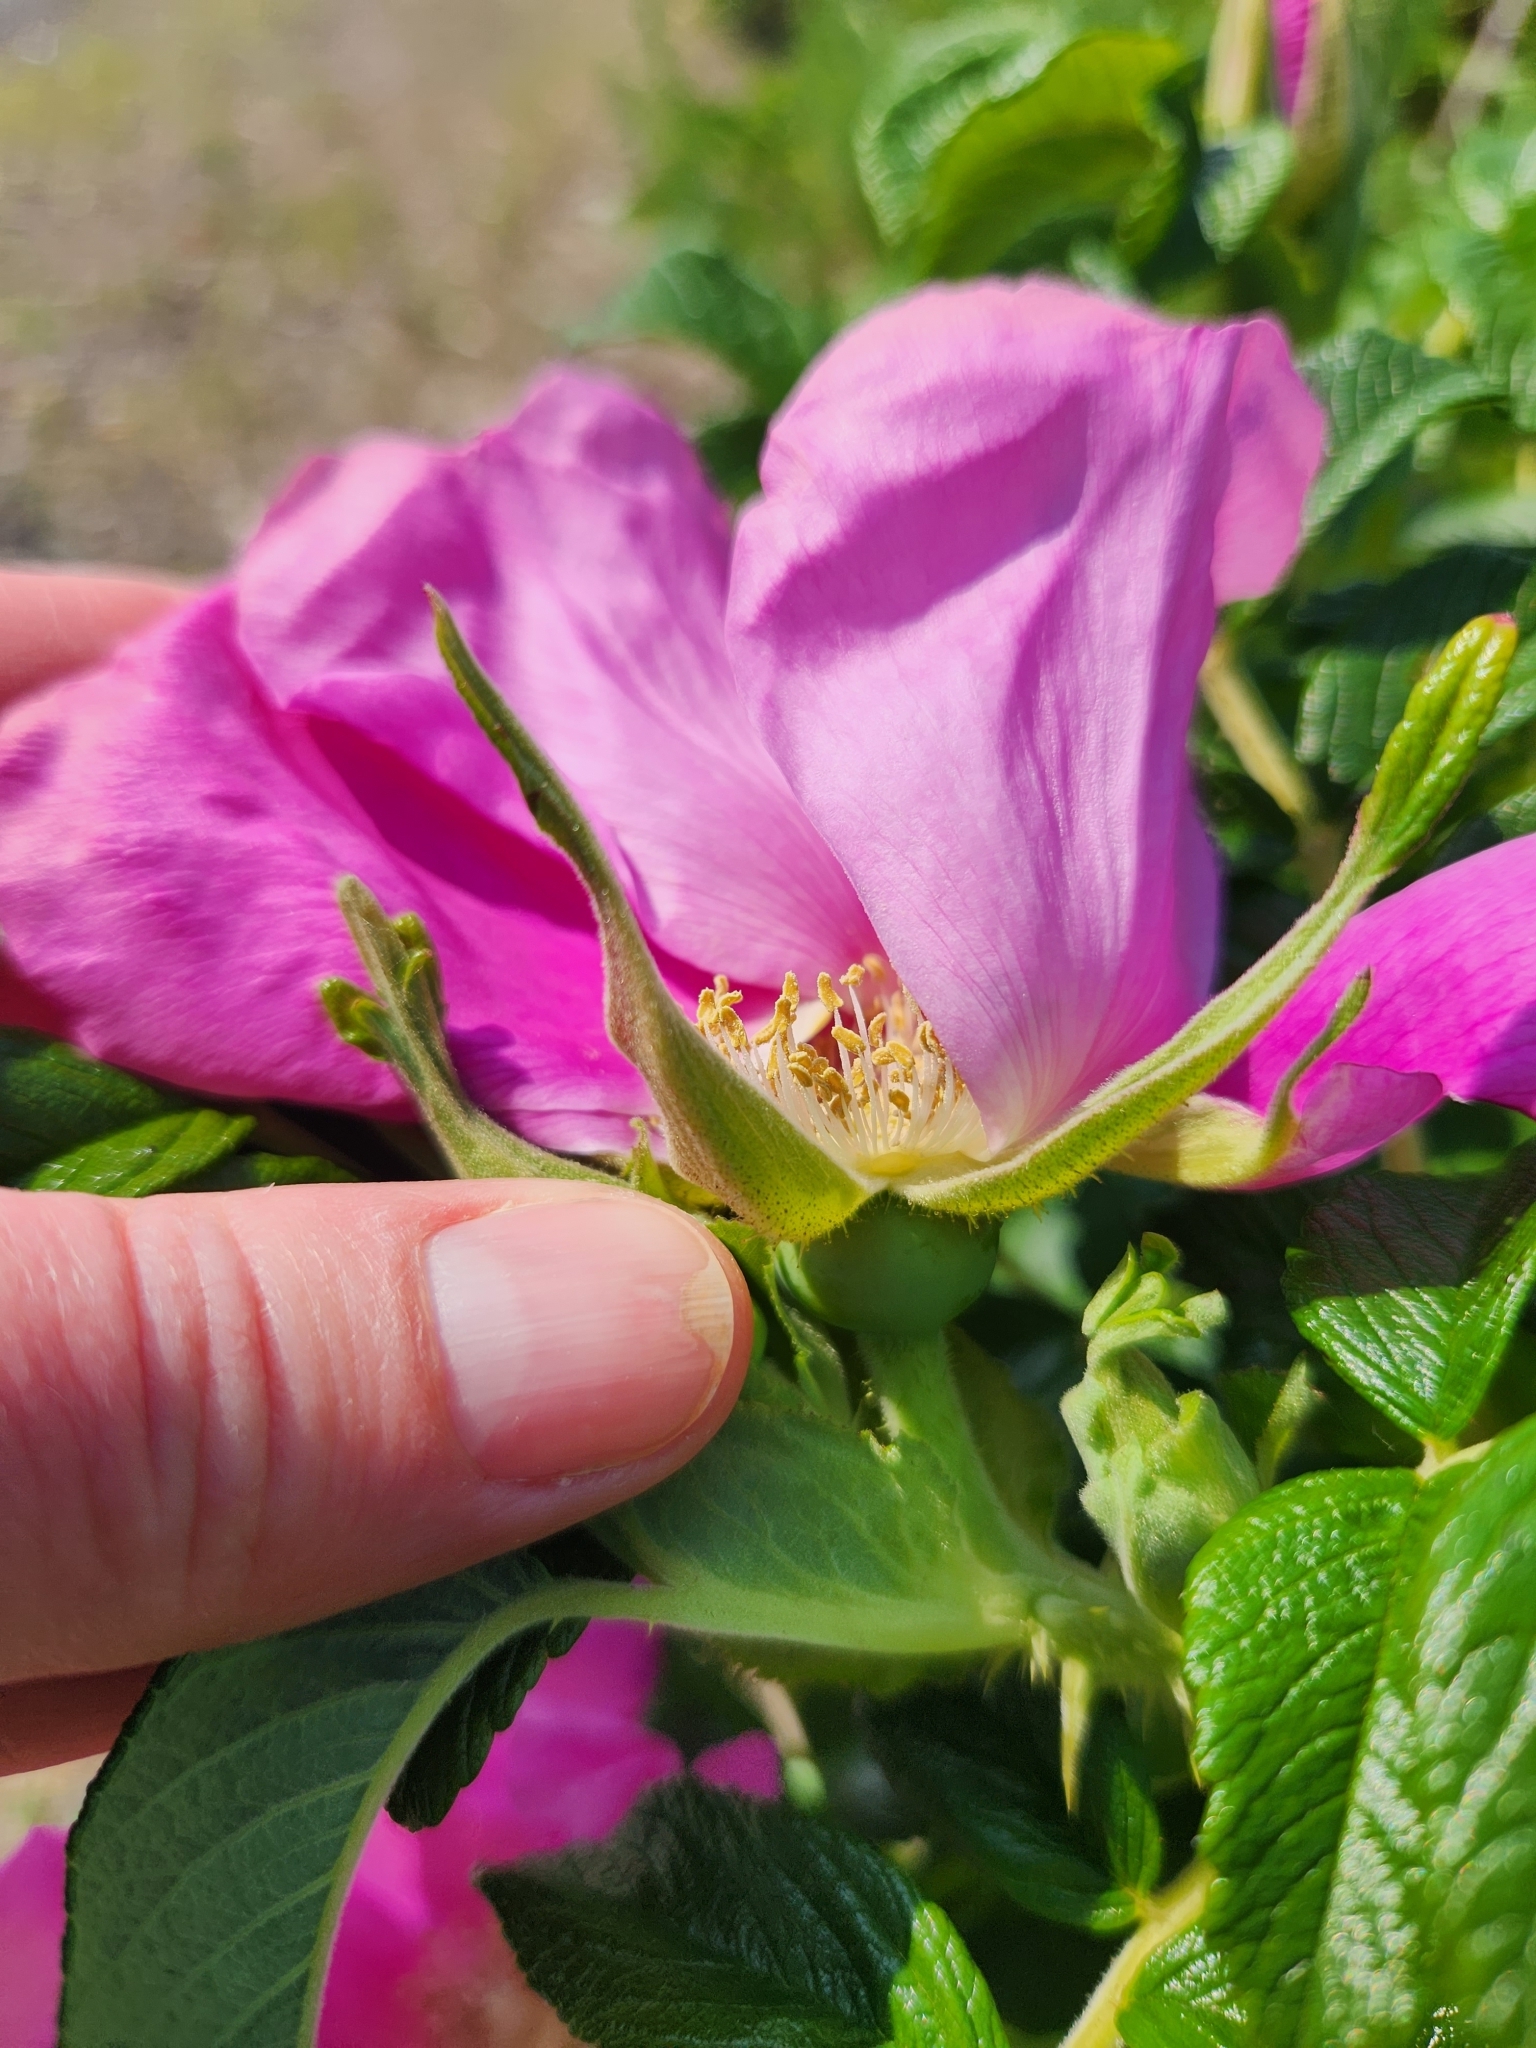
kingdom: Plantae
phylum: Tracheophyta
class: Magnoliopsida
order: Rosales
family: Rosaceae
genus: Rosa
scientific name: Rosa rugosa
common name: Japanese rose
